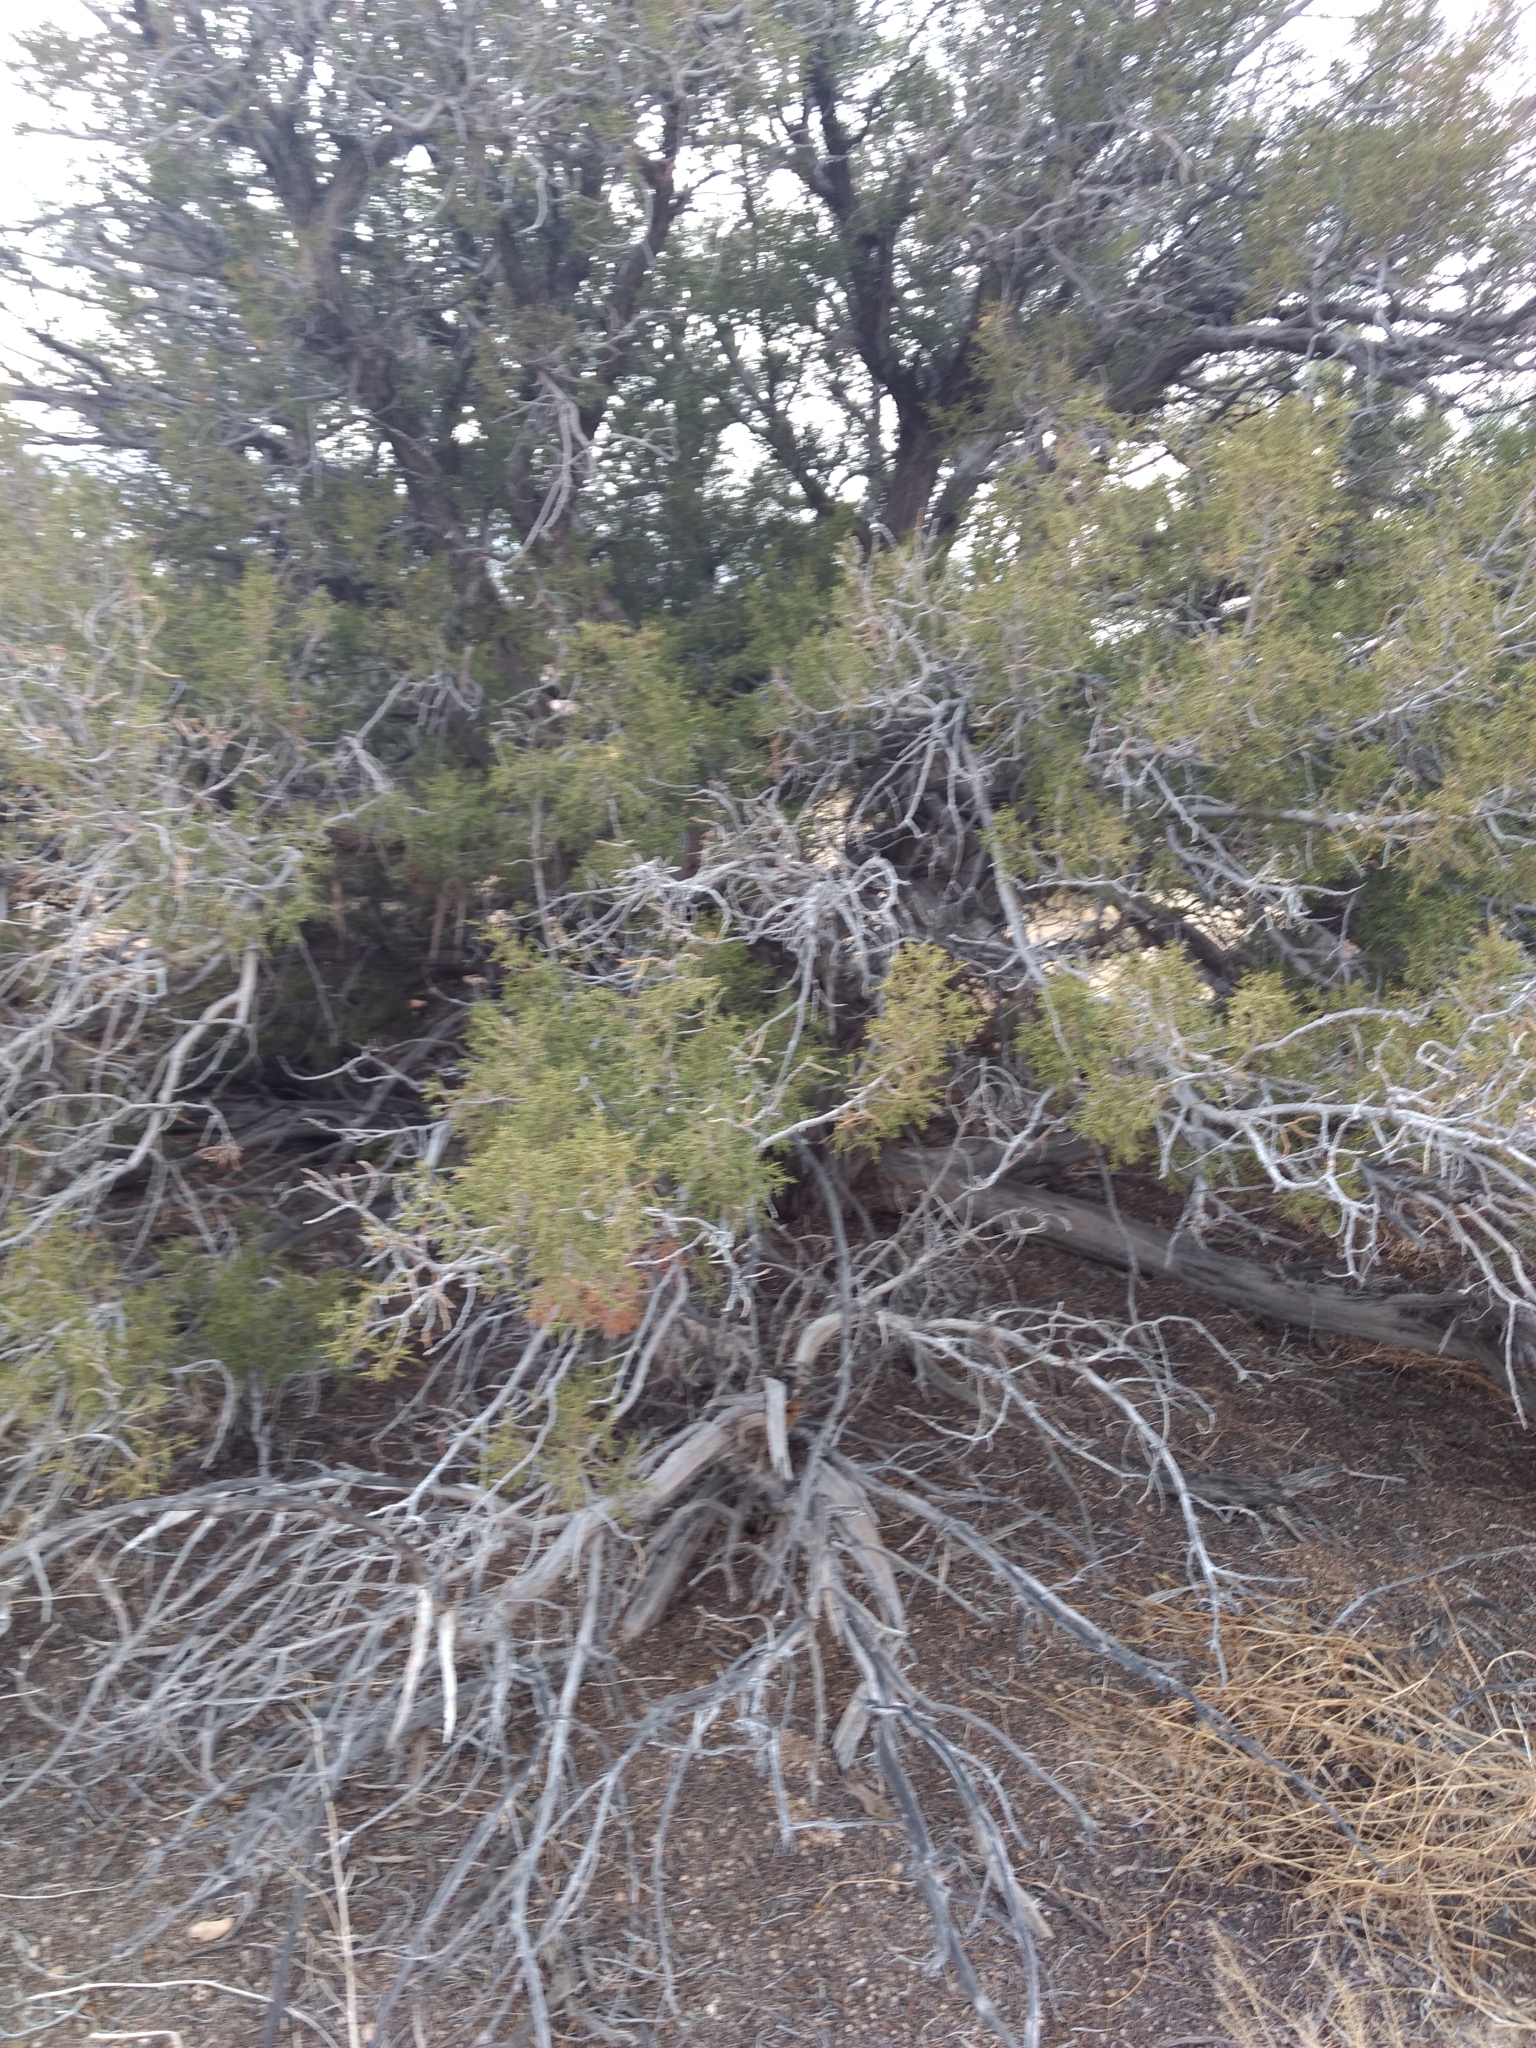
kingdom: Plantae
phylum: Tracheophyta
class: Pinopsida
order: Pinales
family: Cupressaceae
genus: Juniperus
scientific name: Juniperus californica
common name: California juniper
